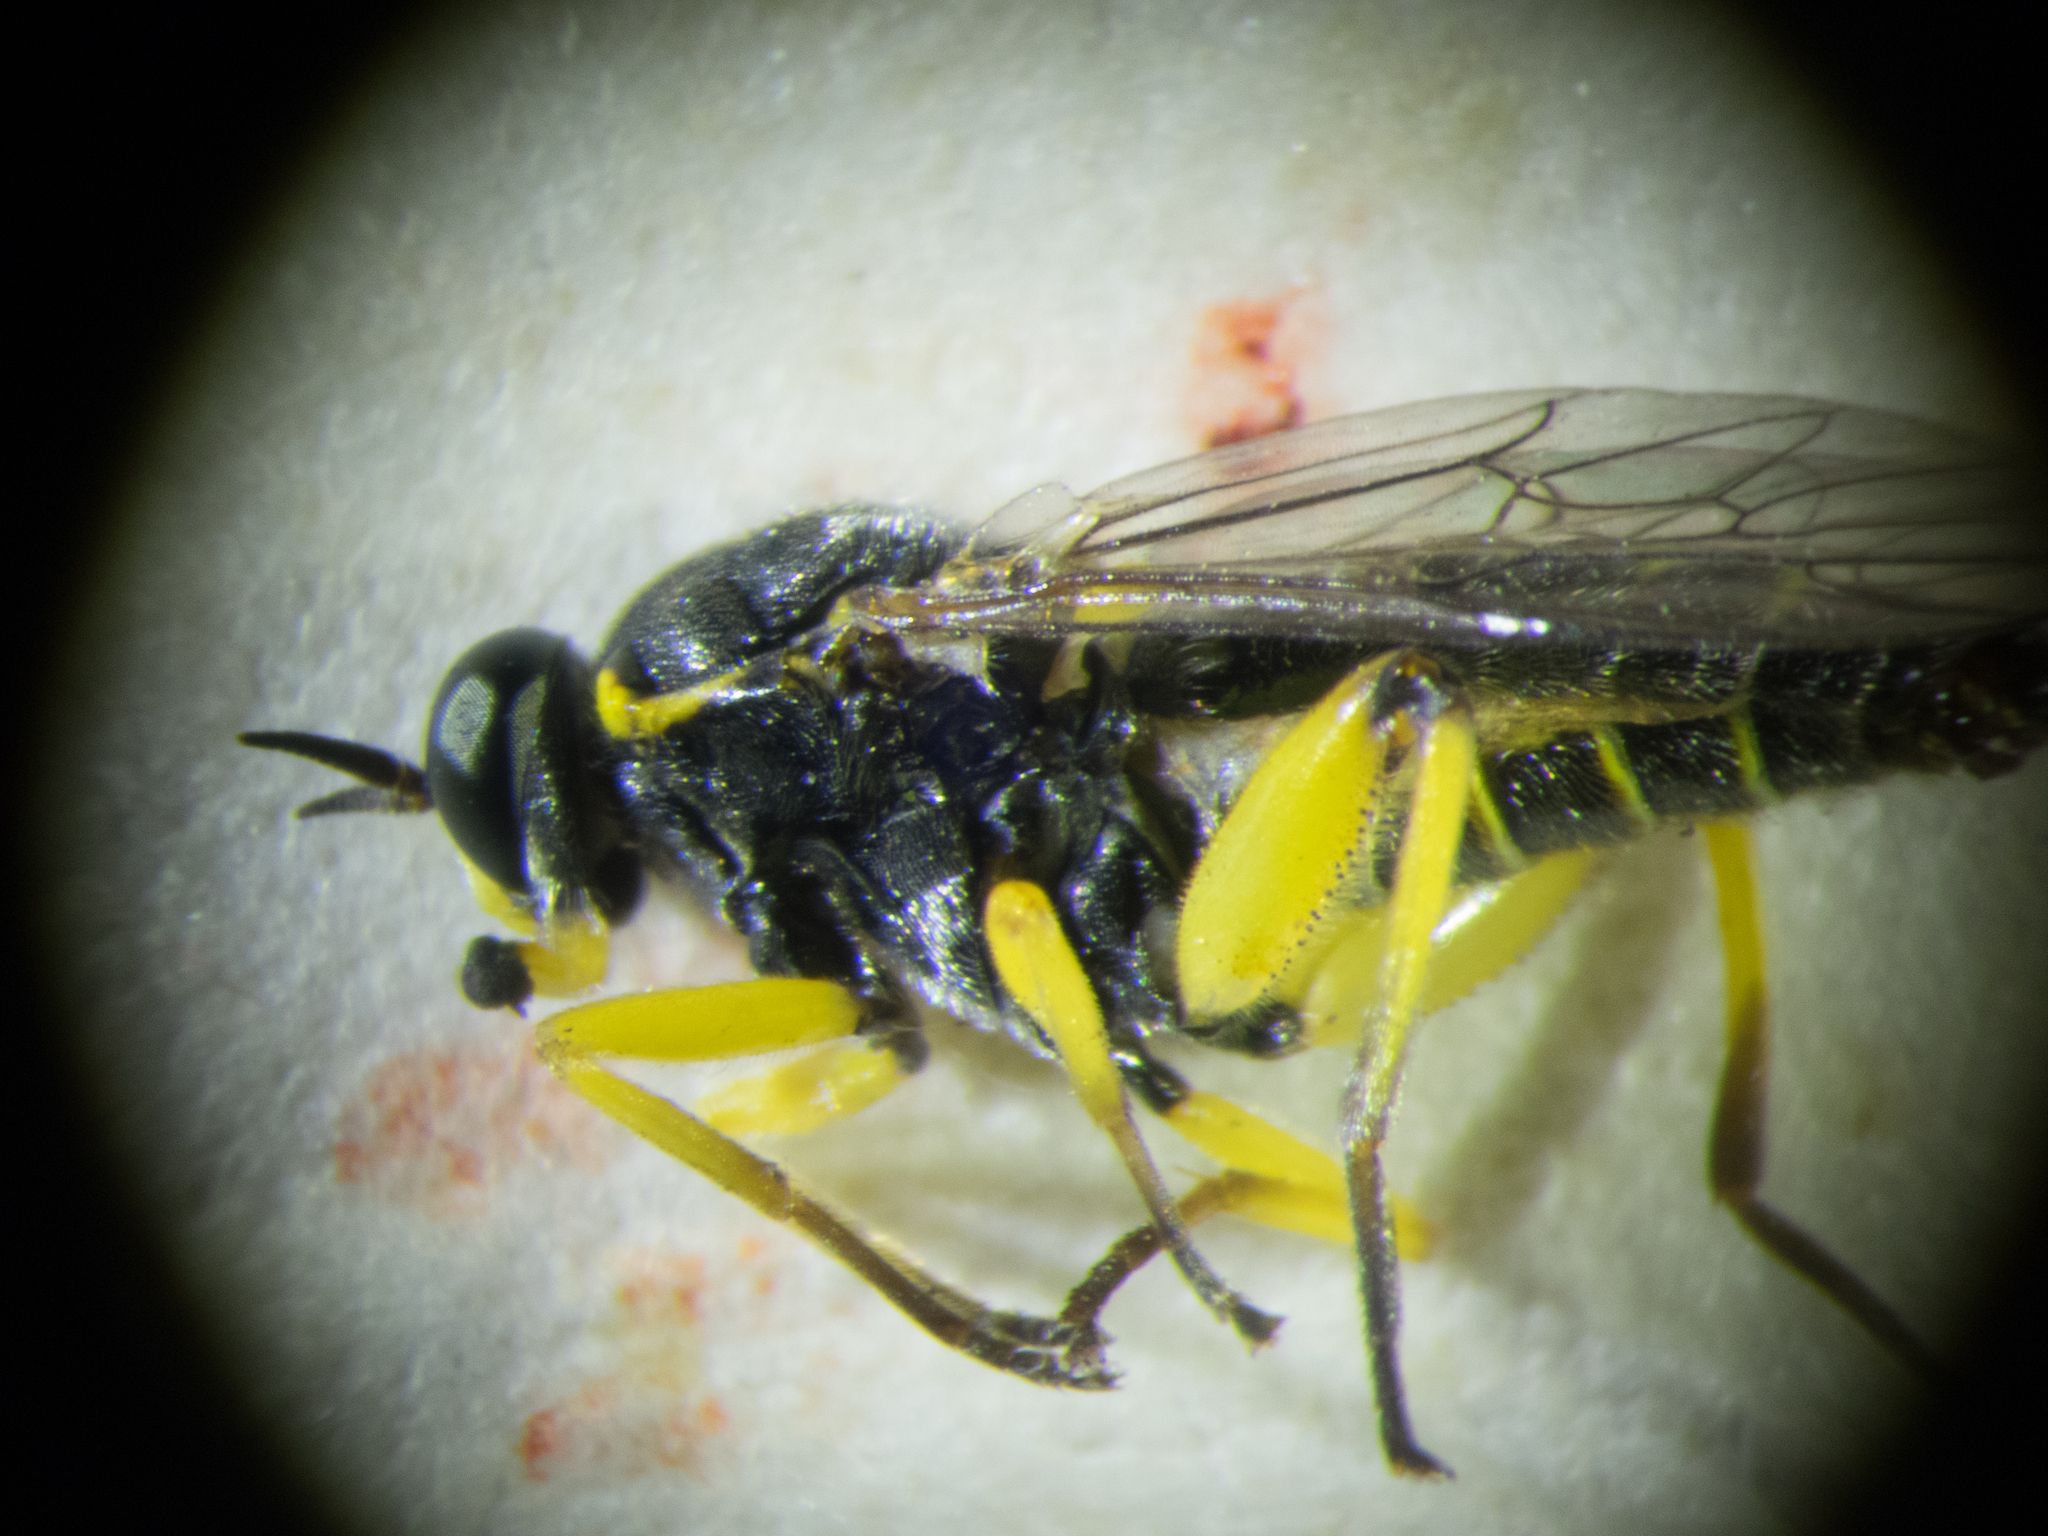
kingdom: Animalia
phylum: Arthropoda
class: Insecta
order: Diptera
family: Xylomyidae
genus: Solva
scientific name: Solva marginata
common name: Drab wood-soldierfly
